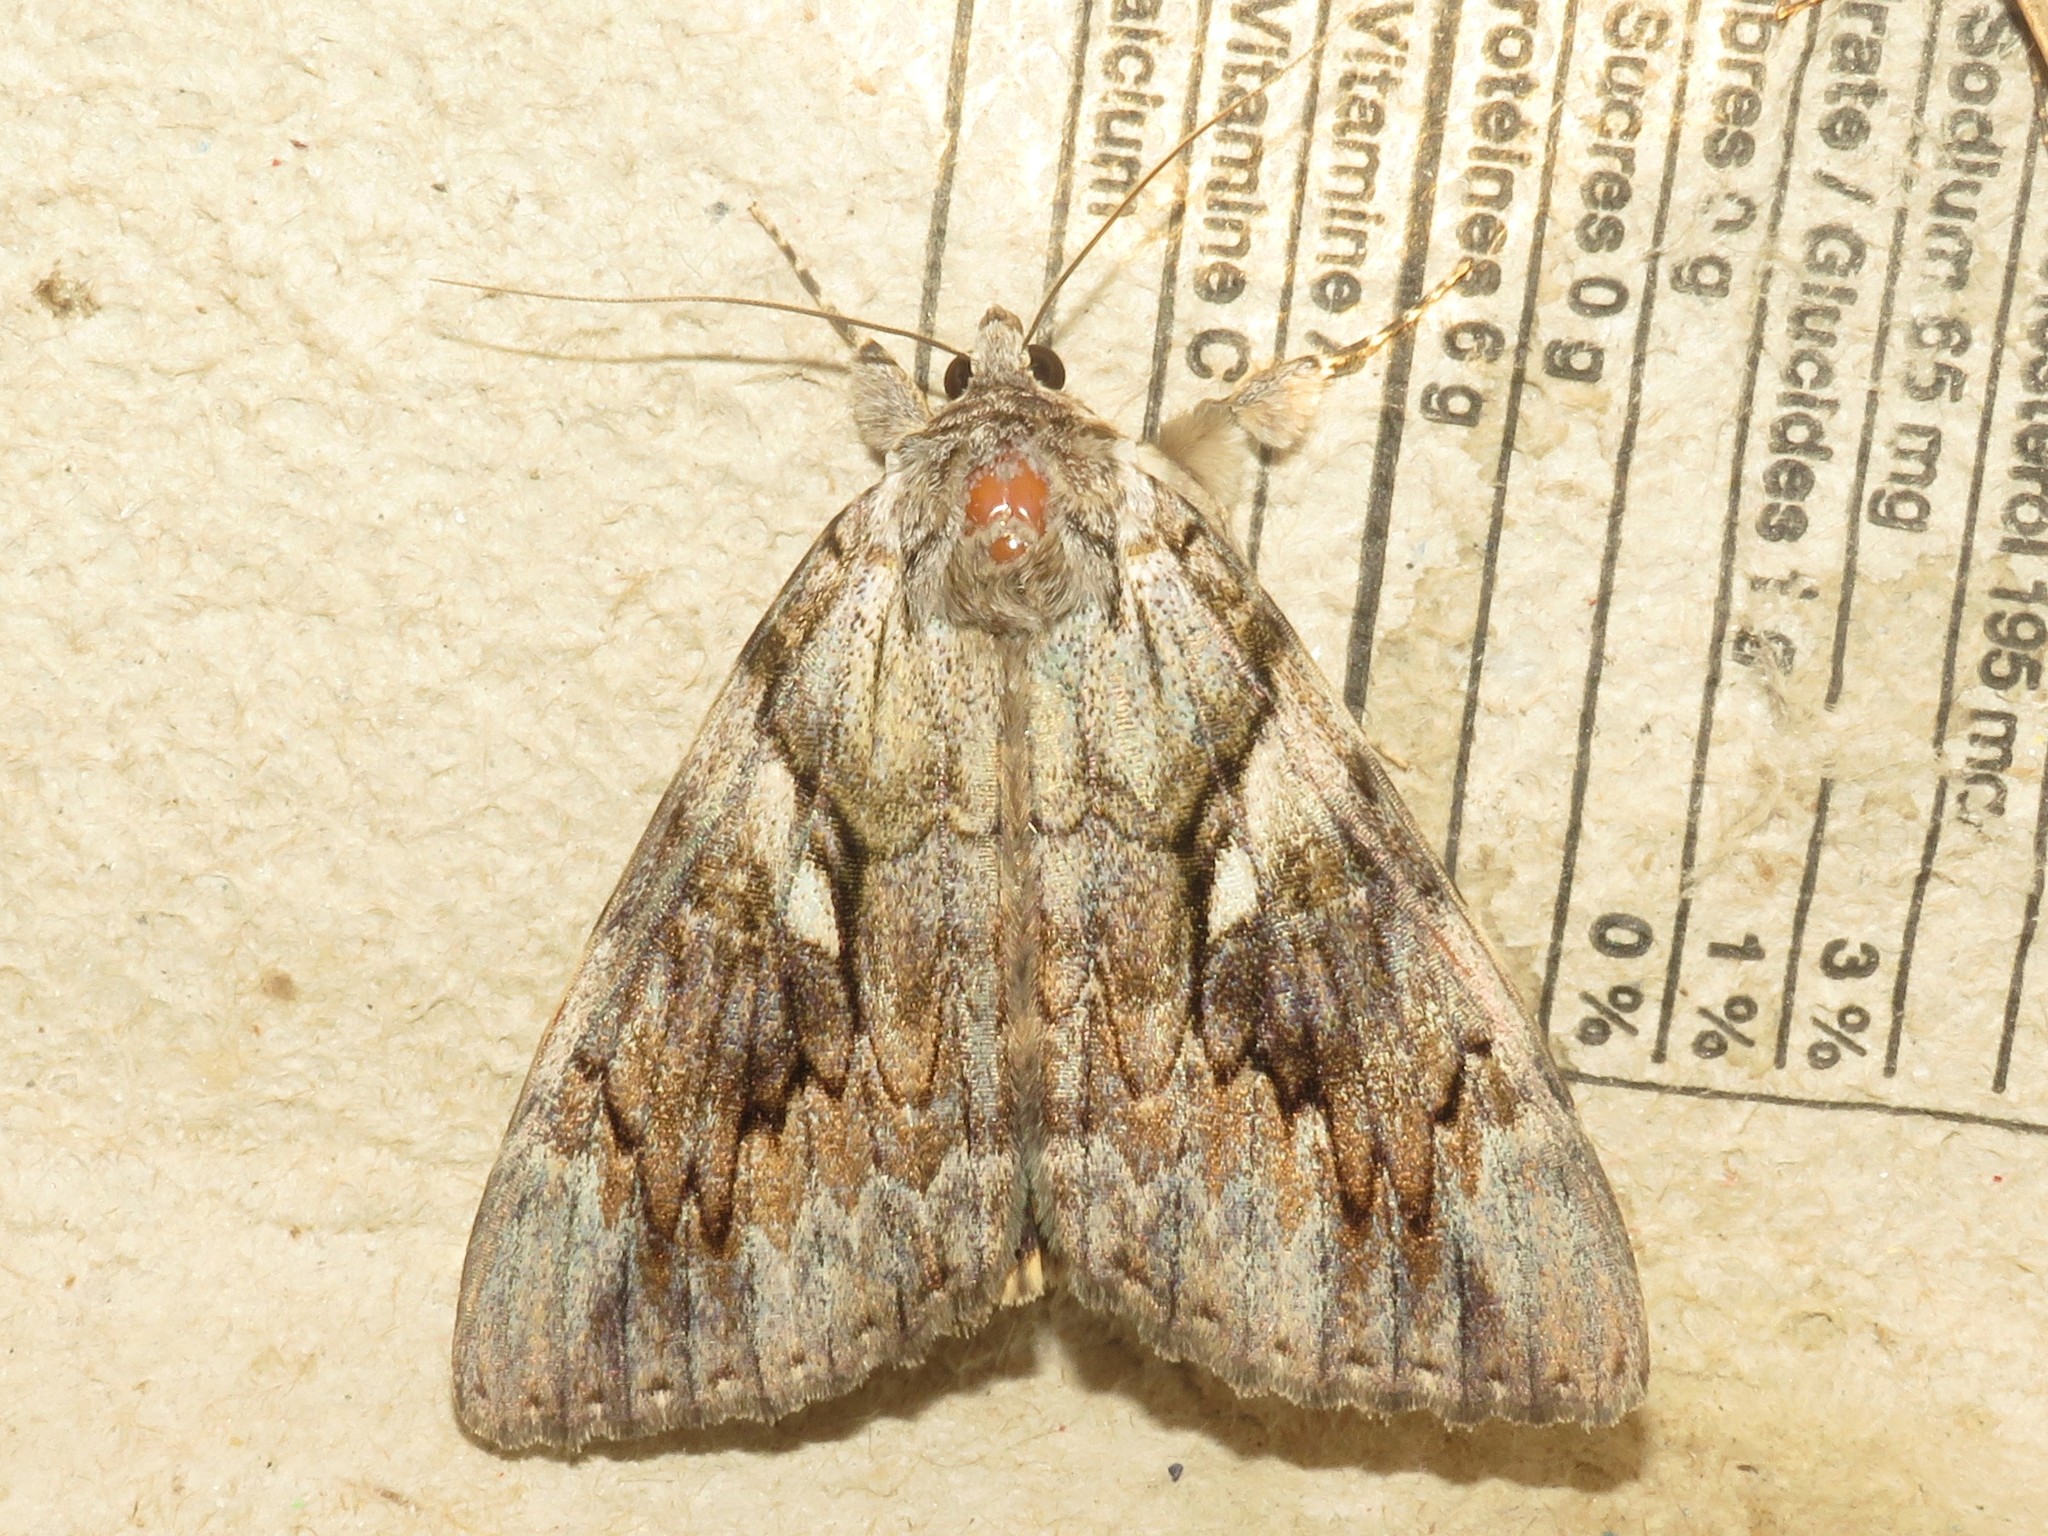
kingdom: Animalia
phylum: Arthropoda
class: Insecta
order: Lepidoptera
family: Erebidae
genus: Catocala
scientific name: Catocala cerogama
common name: Yellow banded underwing
